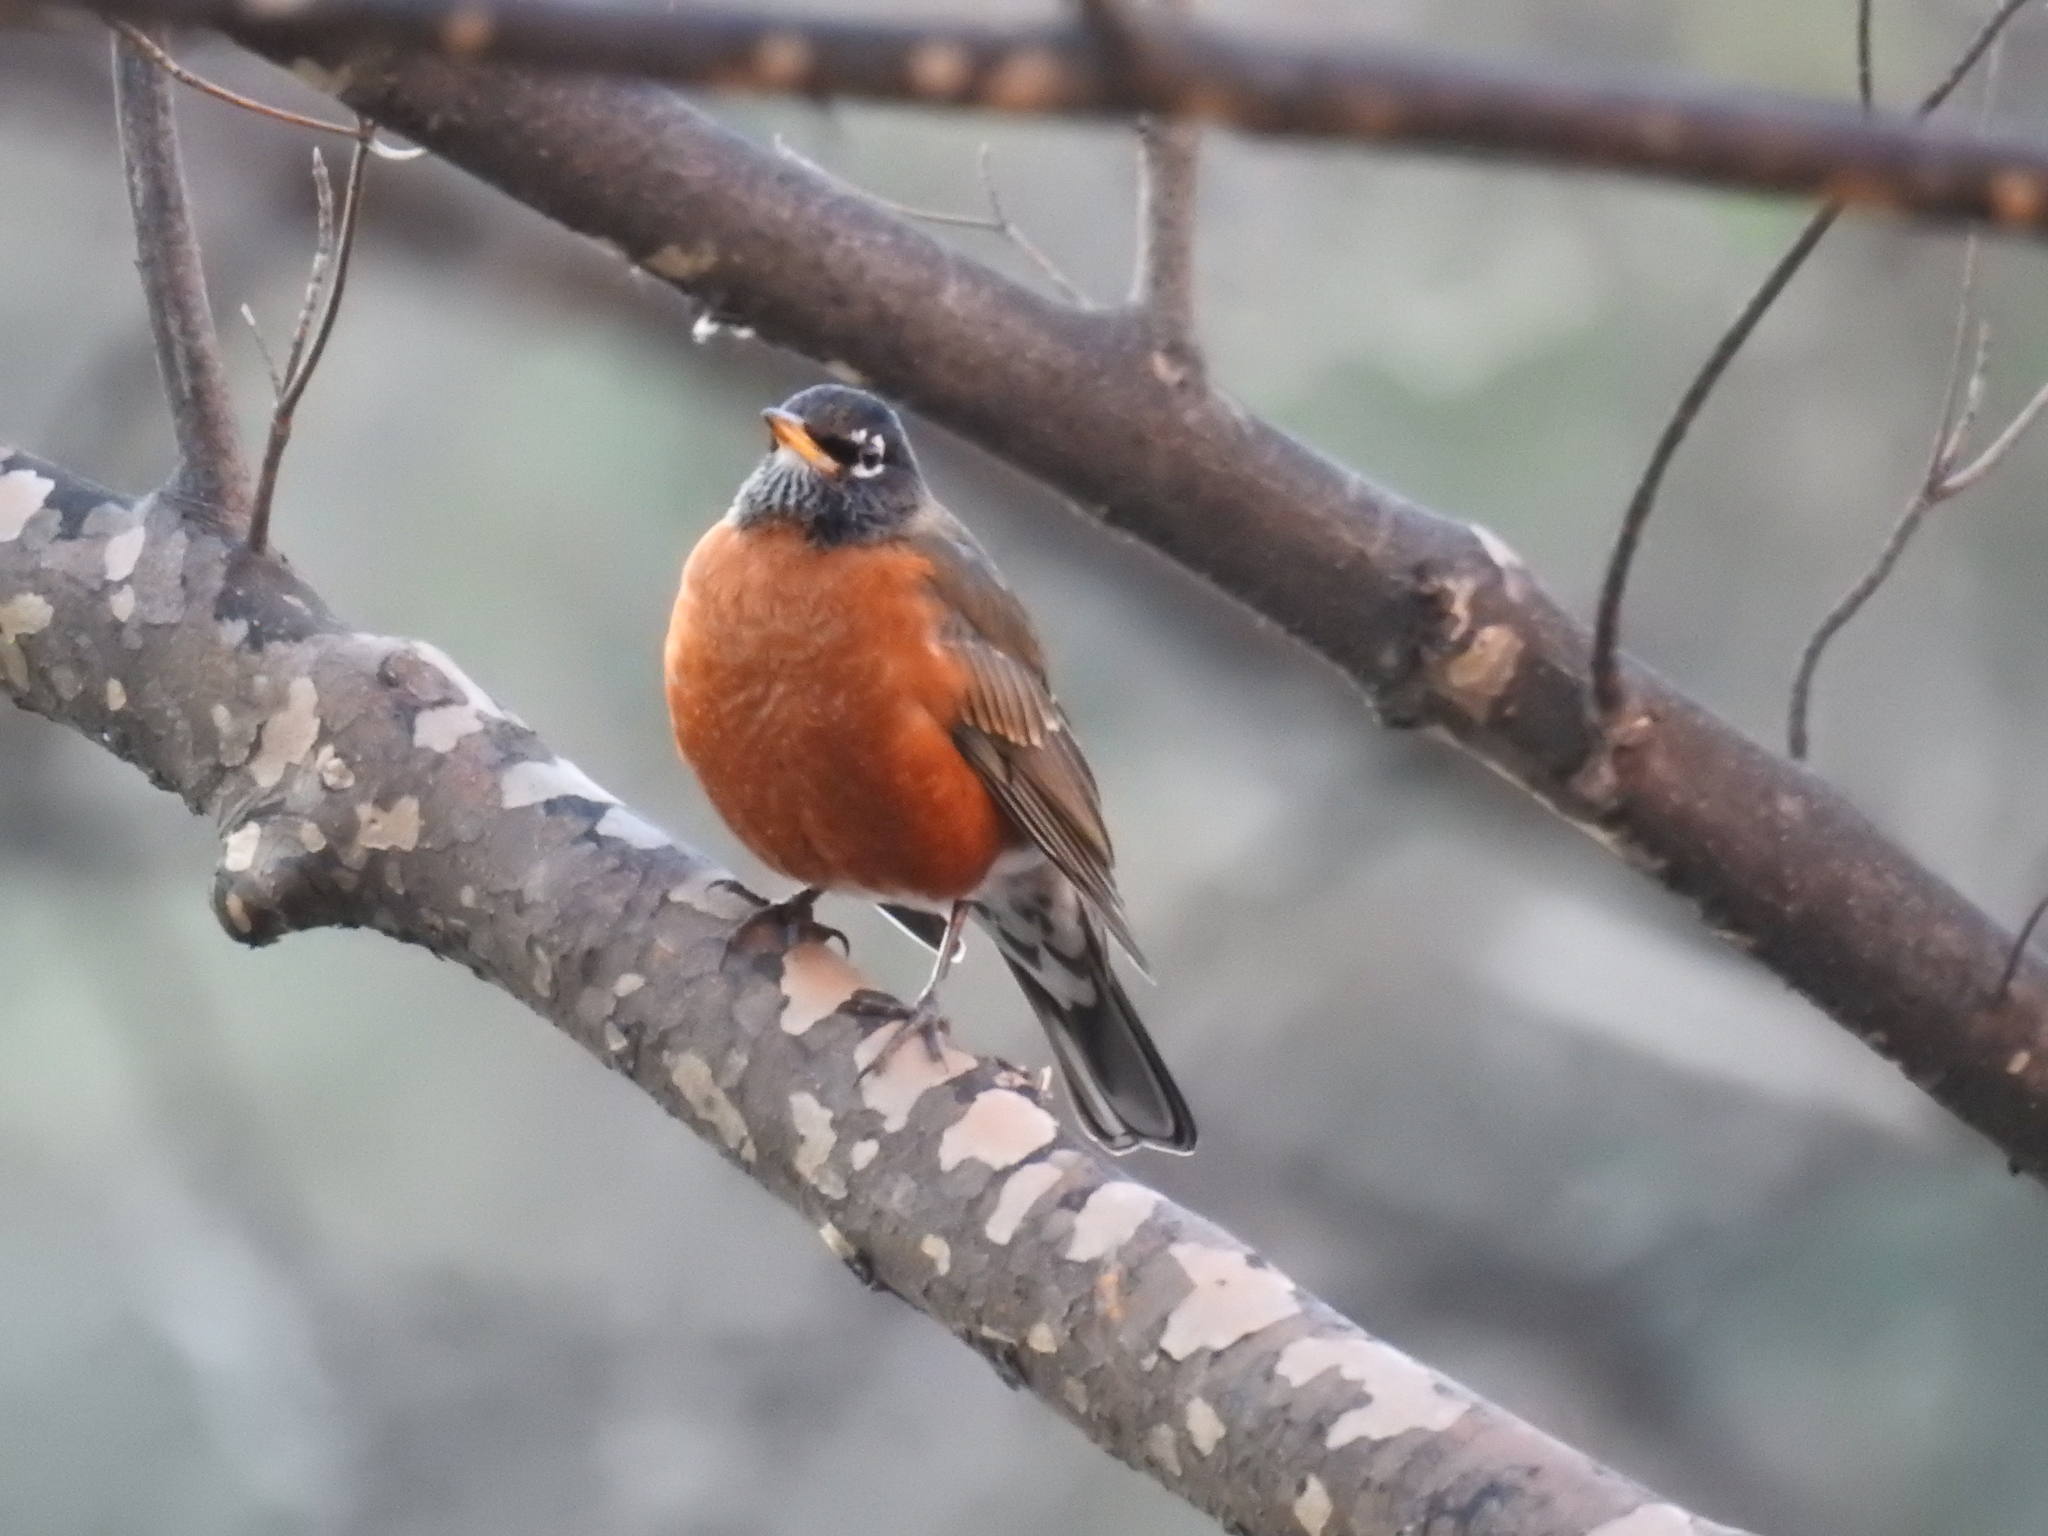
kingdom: Animalia
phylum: Chordata
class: Aves
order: Passeriformes
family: Turdidae
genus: Turdus
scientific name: Turdus migratorius
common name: American robin
